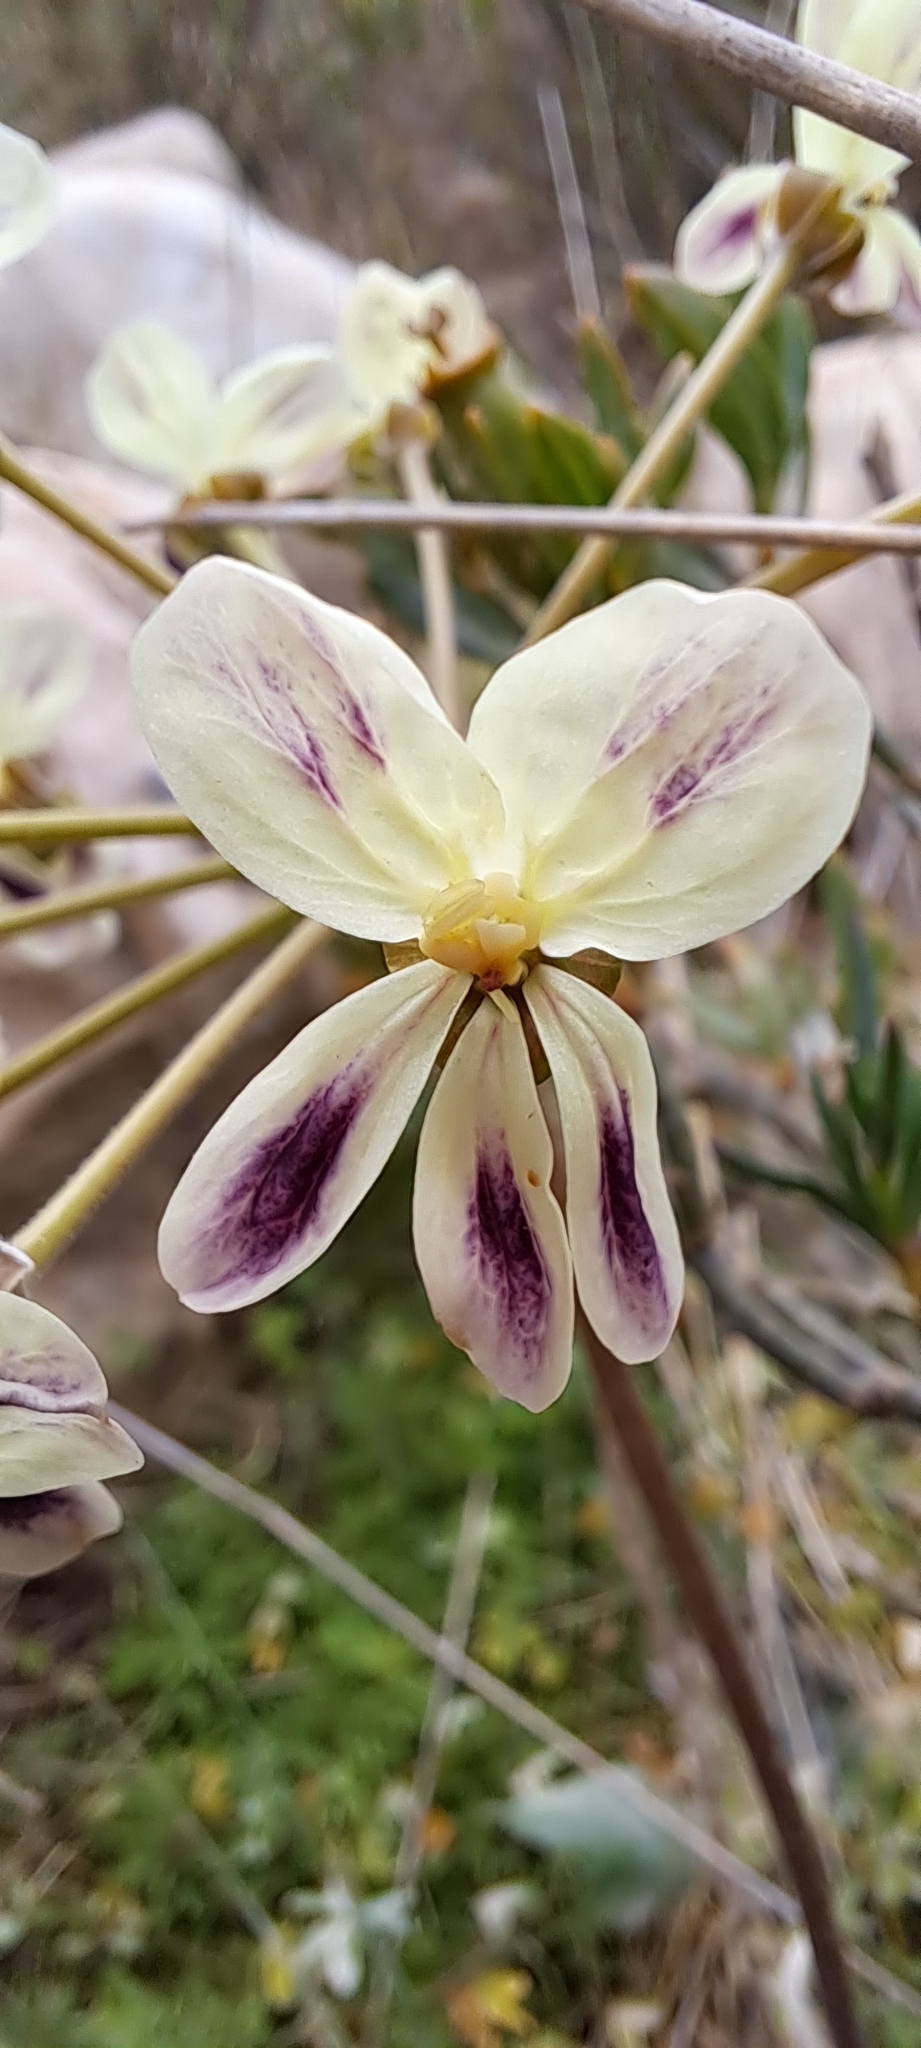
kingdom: Plantae
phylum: Tracheophyta
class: Magnoliopsida
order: Geraniales
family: Geraniaceae
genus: Pelargonium
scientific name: Pelargonium triste
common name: Night-scent pelargonium
